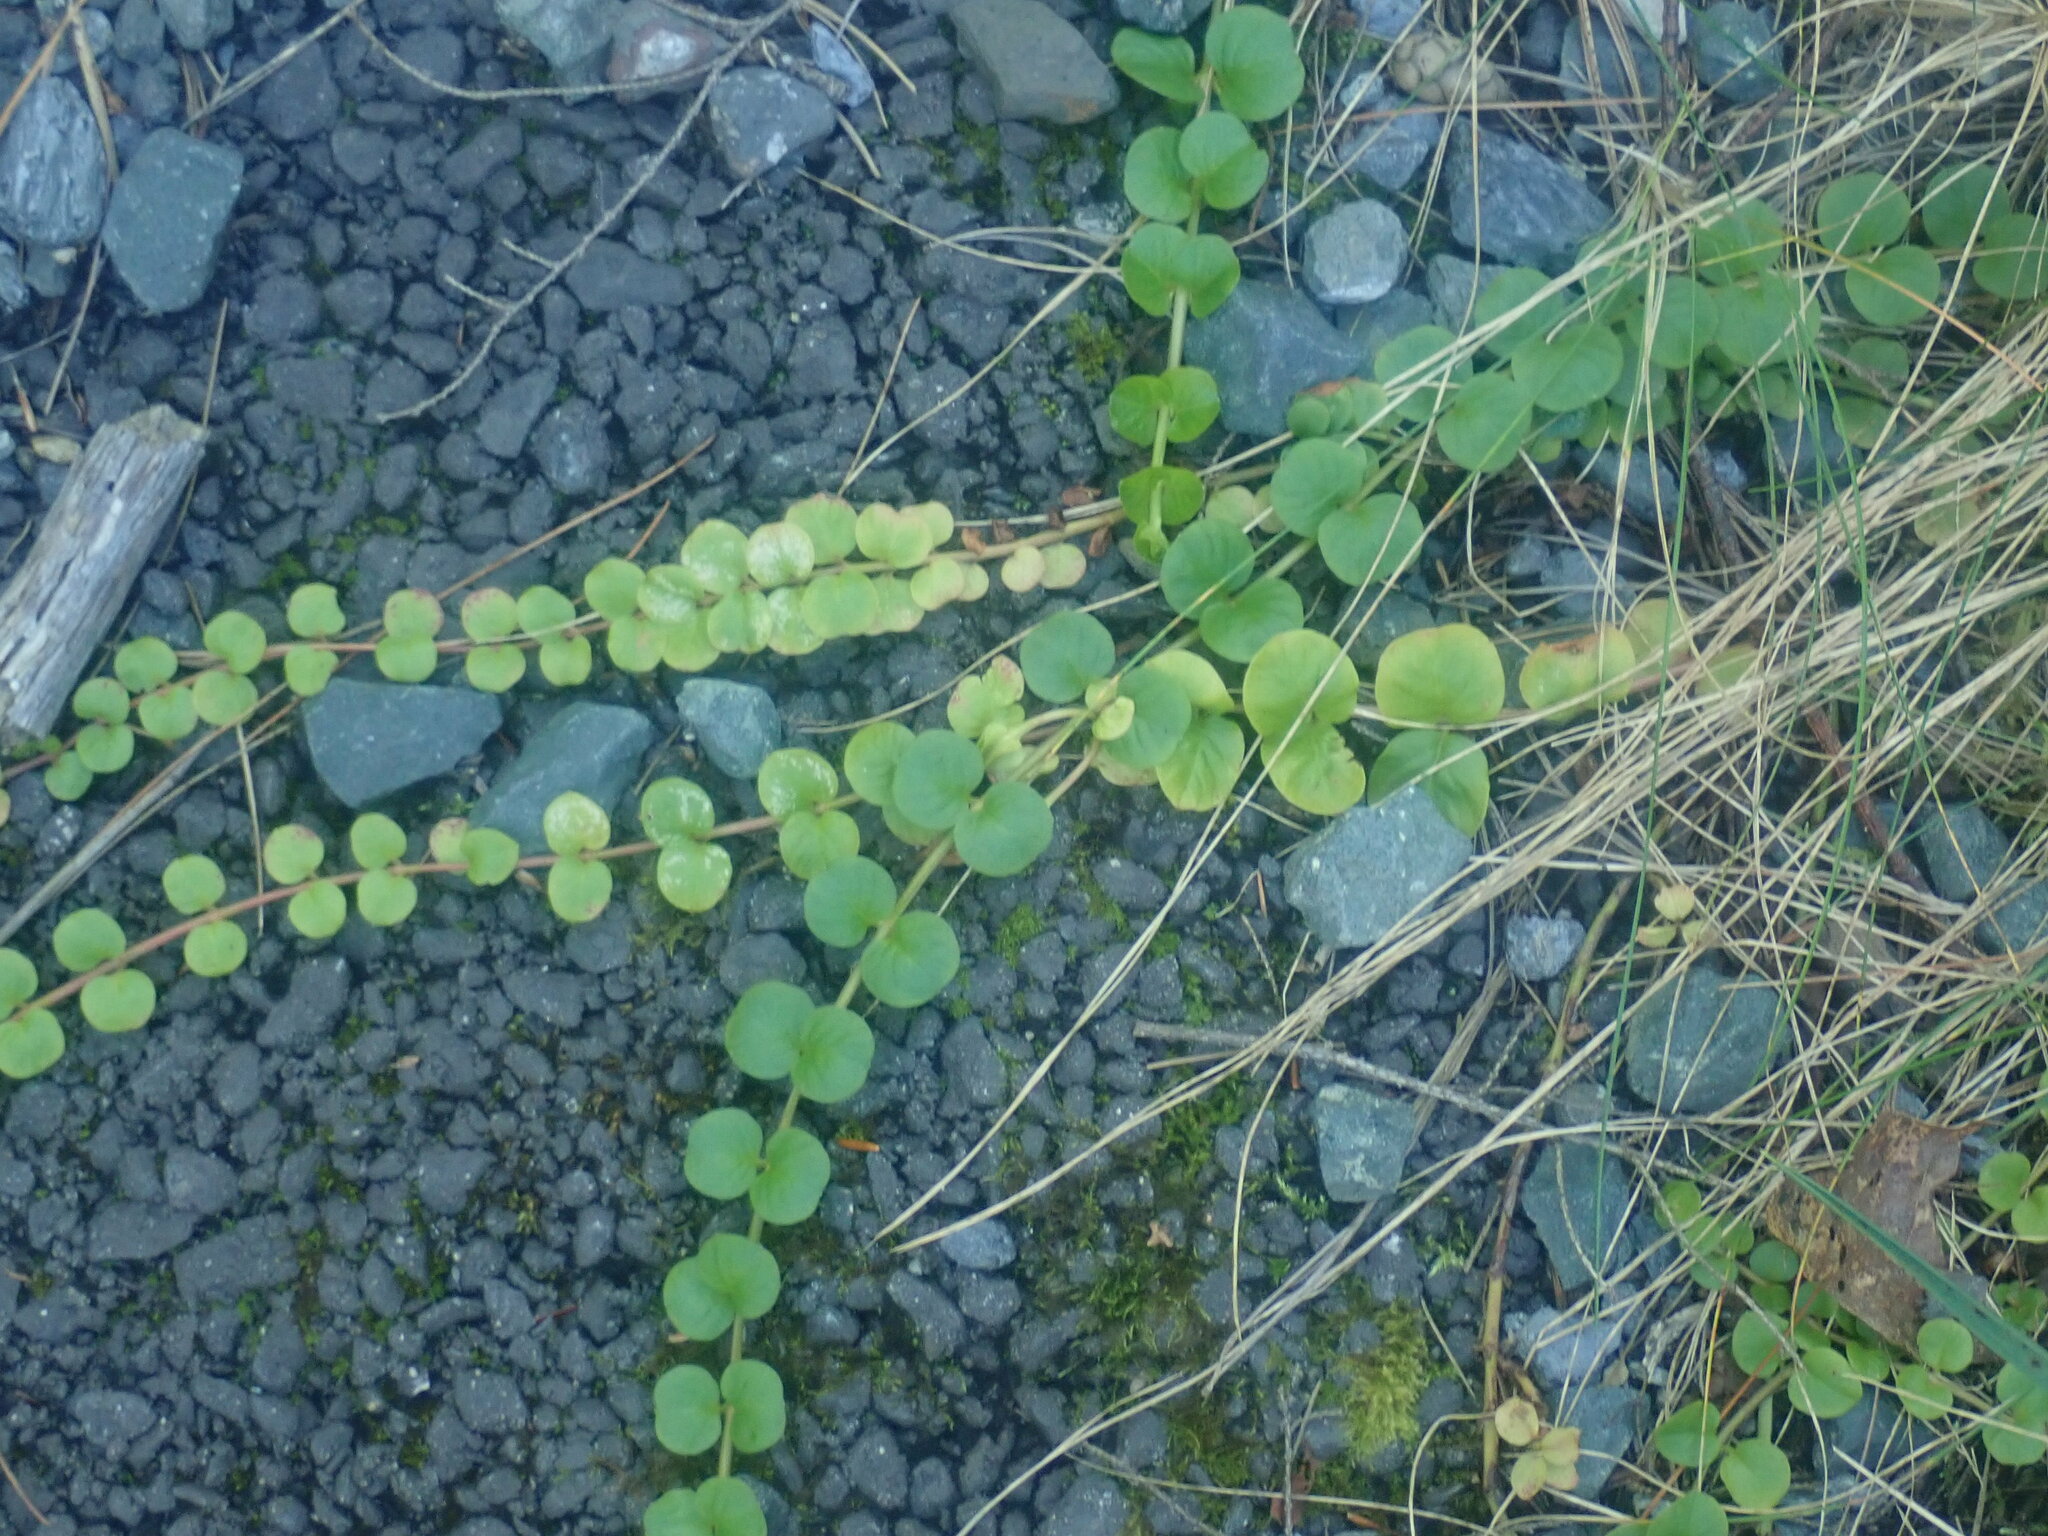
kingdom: Plantae
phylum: Tracheophyta
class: Magnoliopsida
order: Ericales
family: Primulaceae
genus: Lysimachia
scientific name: Lysimachia nummularia
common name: Moneywort
